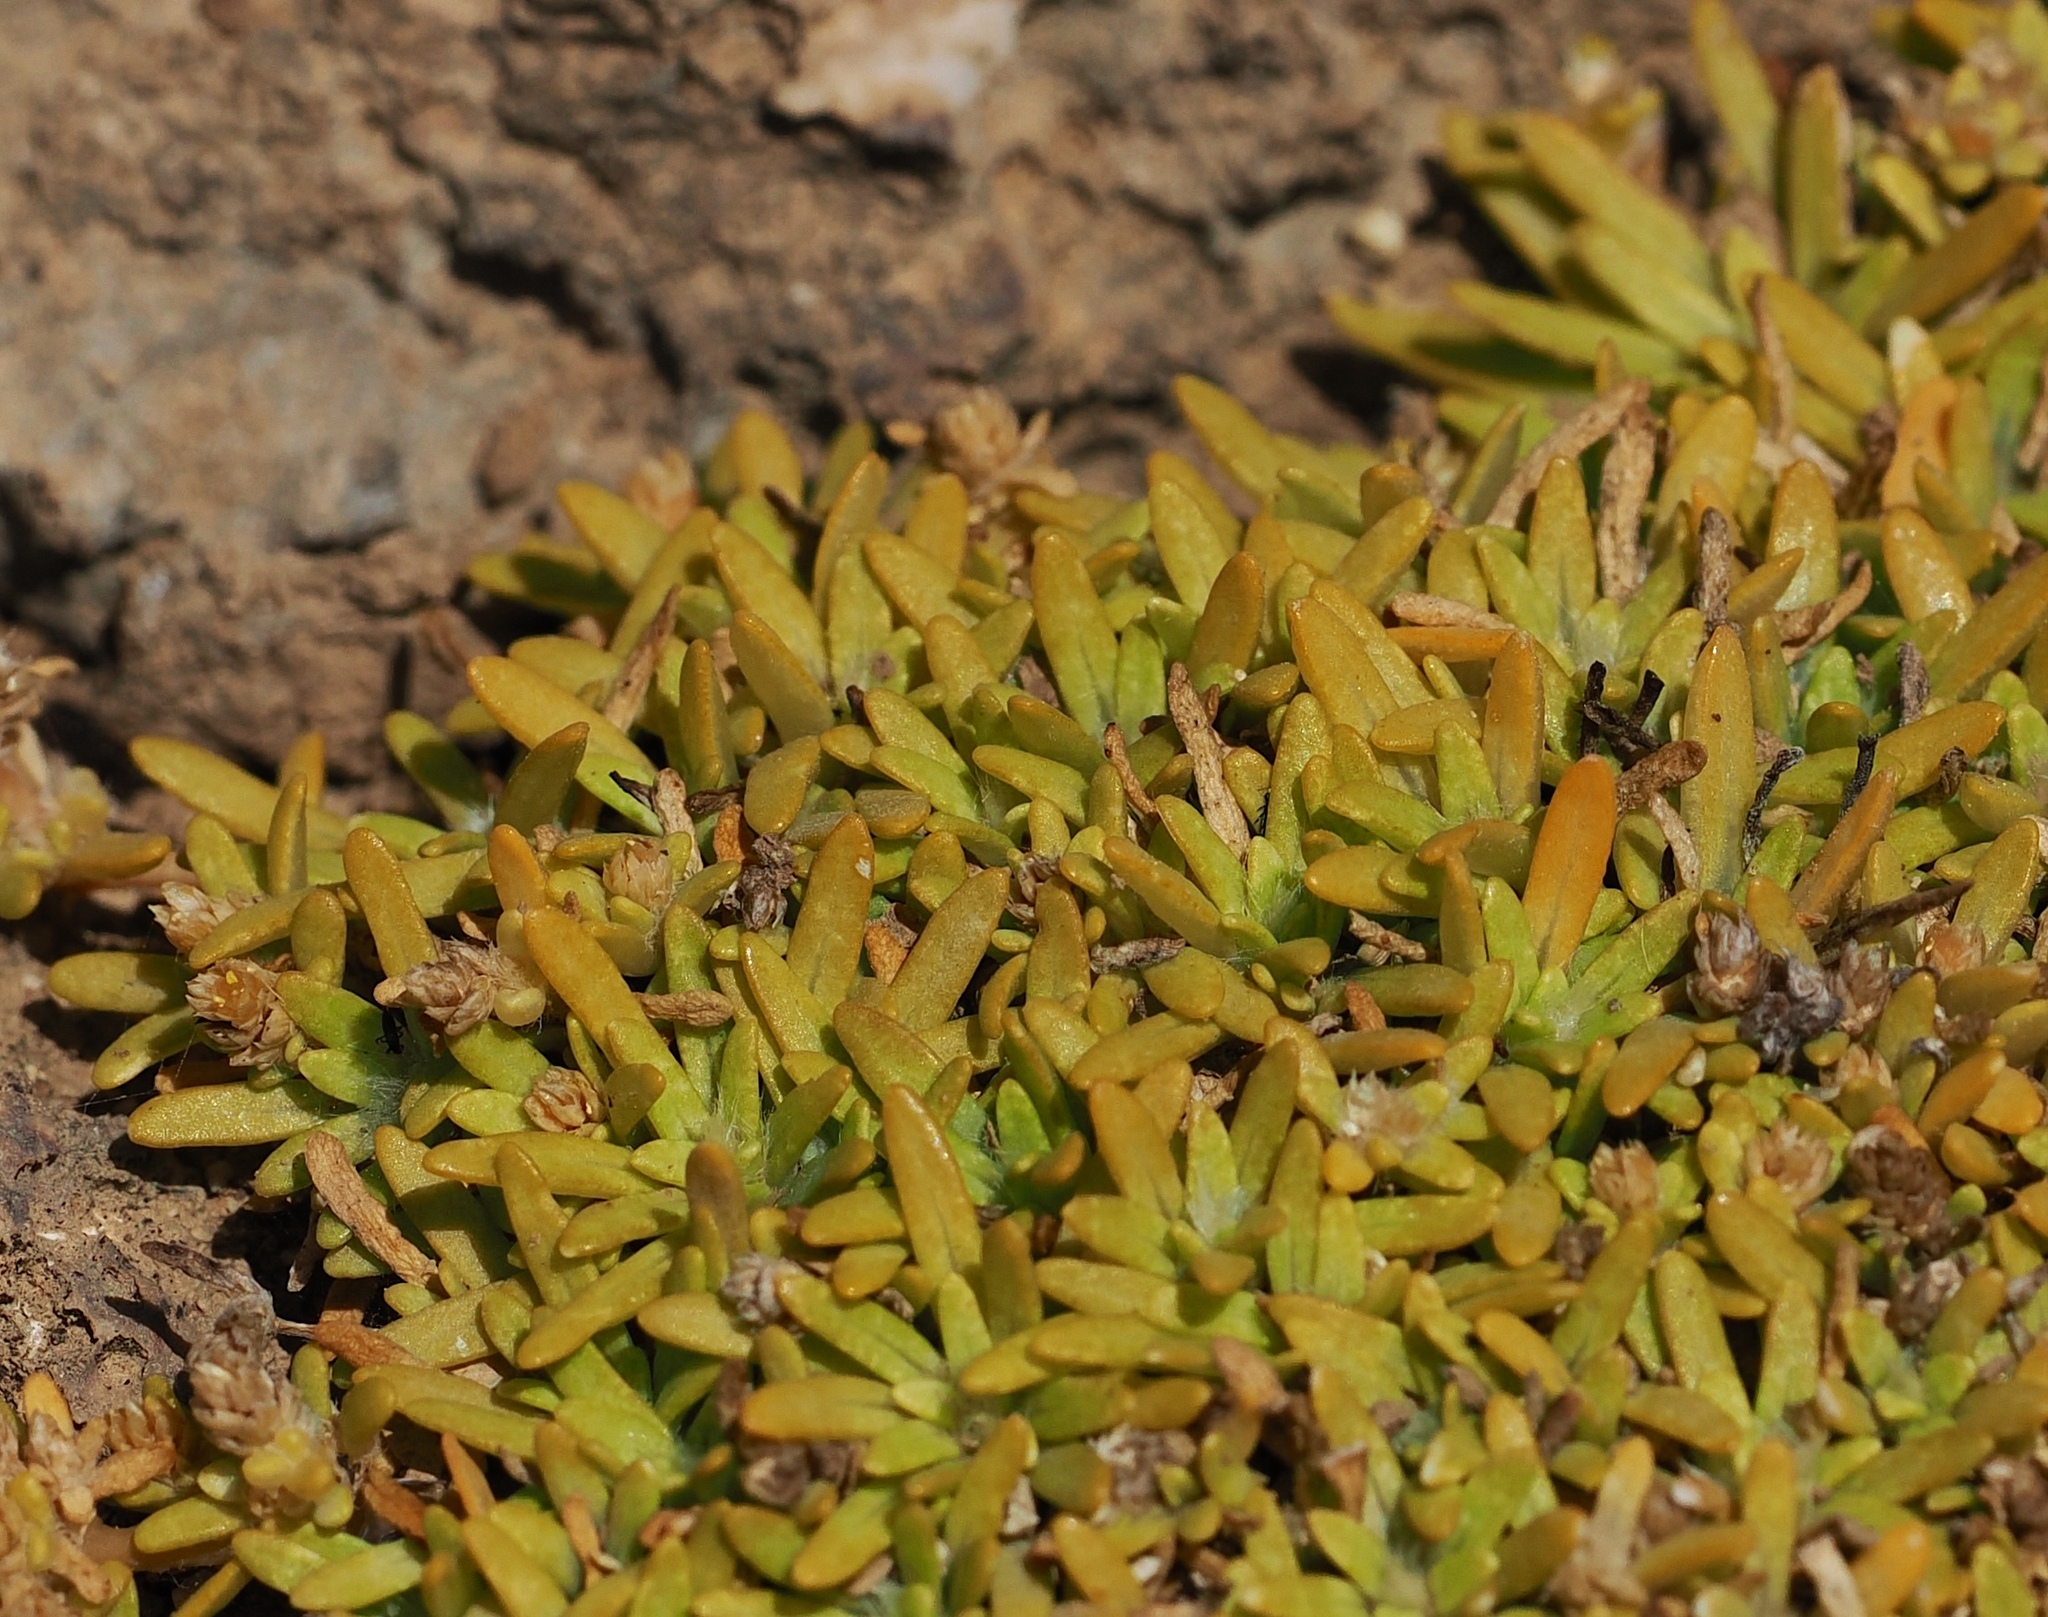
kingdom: Plantae
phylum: Tracheophyta
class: Magnoliopsida
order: Caryophyllales
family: Amaranthaceae
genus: Gomphrena
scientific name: Gomphrena muscoides
